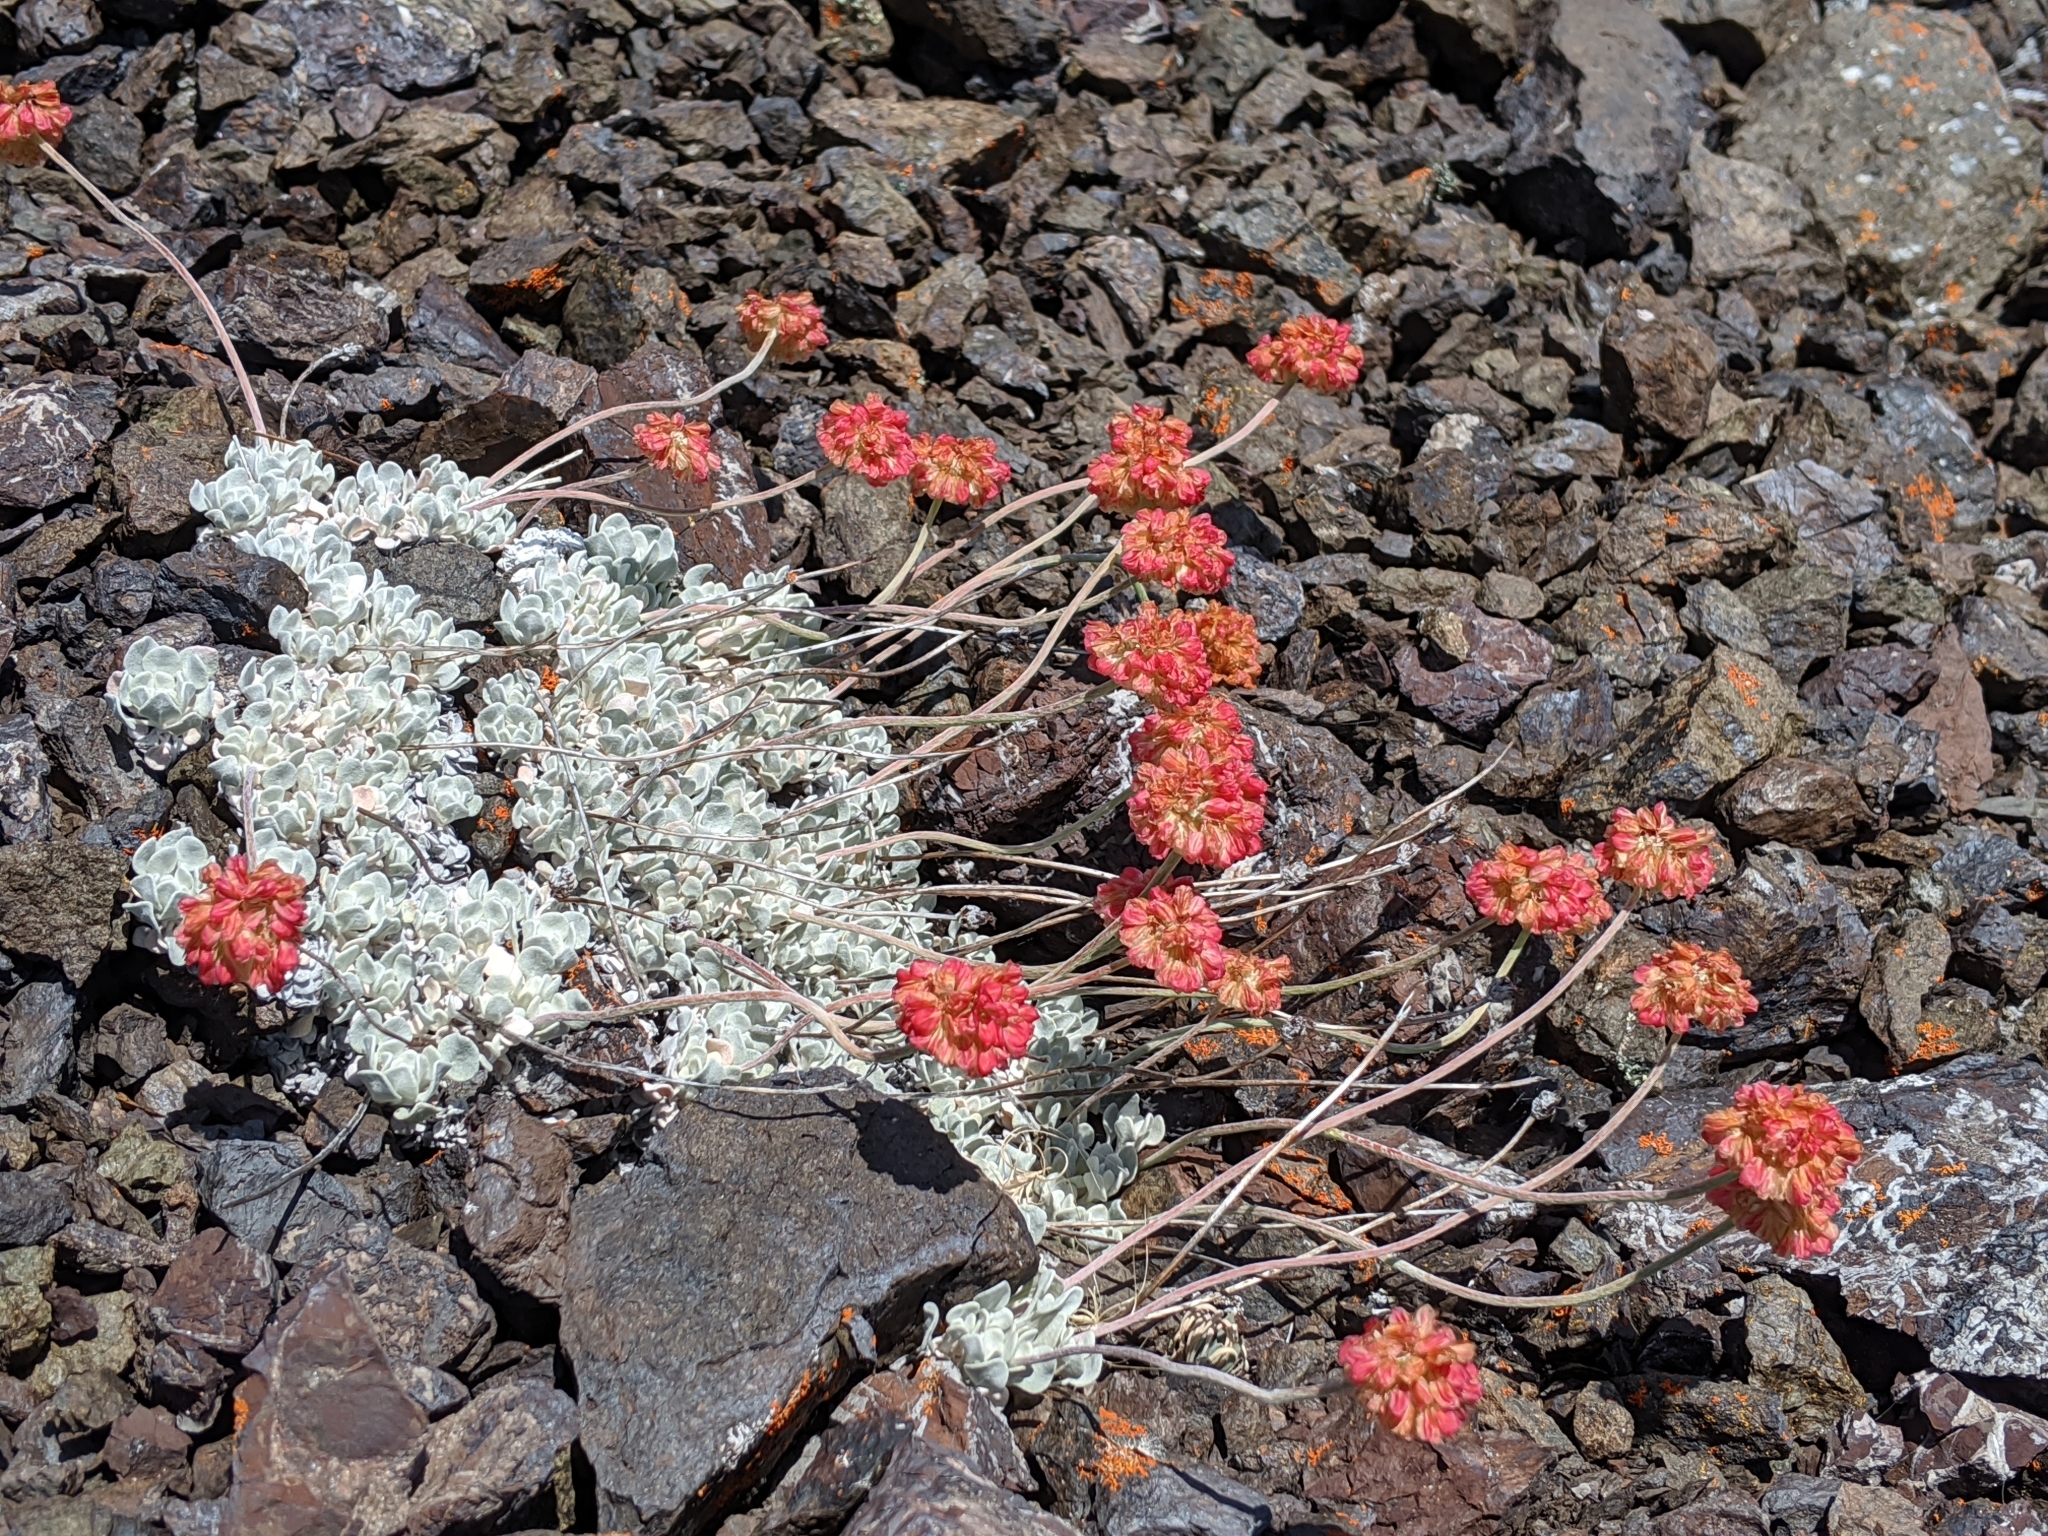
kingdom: Plantae
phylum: Tracheophyta
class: Magnoliopsida
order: Caryophyllales
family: Polygonaceae
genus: Eriogonum
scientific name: Eriogonum ovalifolium
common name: Cushion buckwheat
